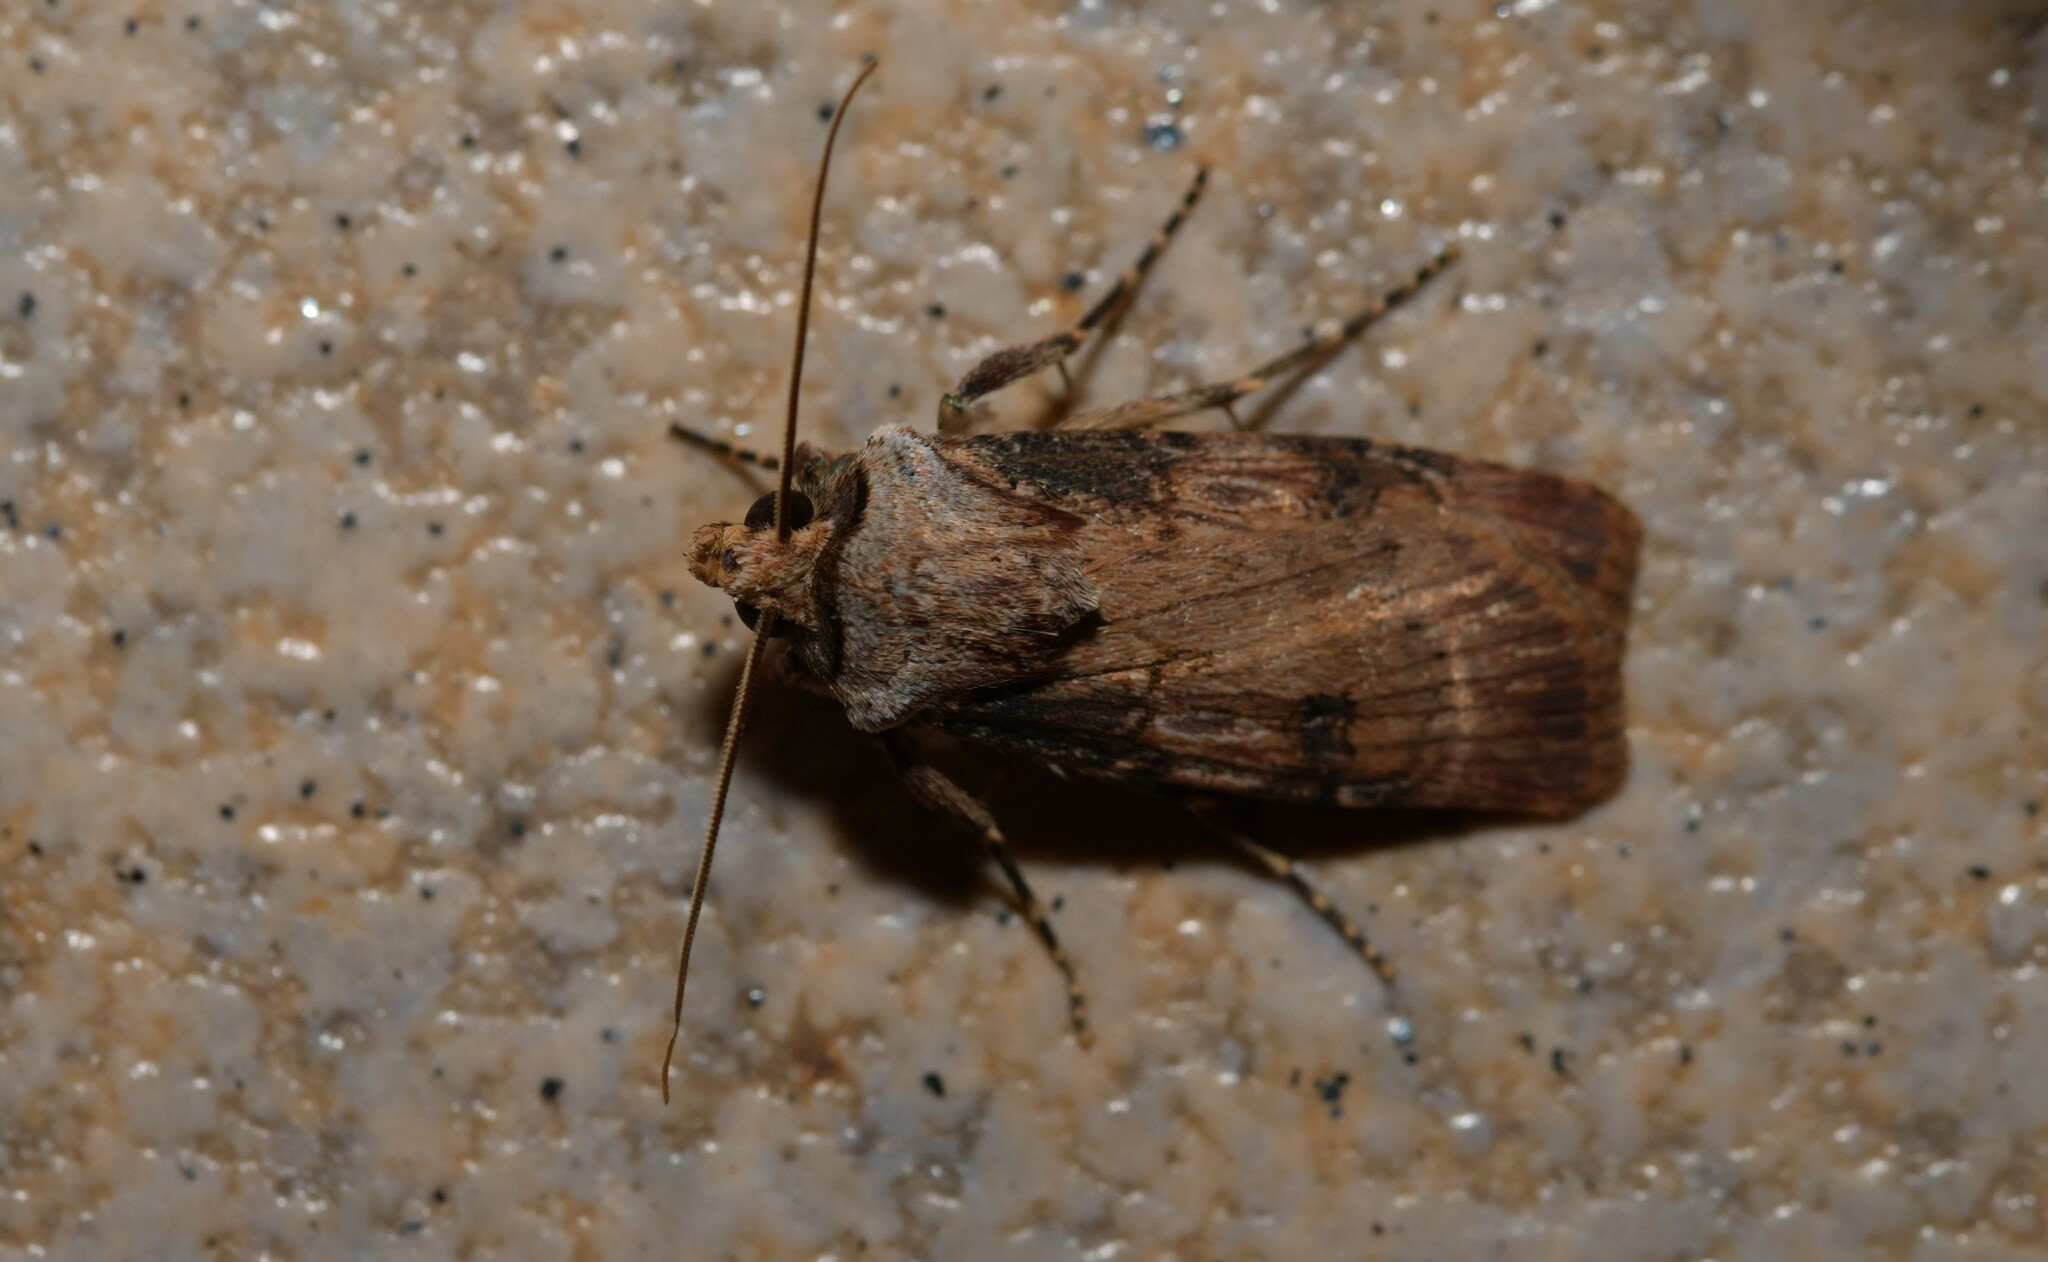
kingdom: Animalia
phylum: Arthropoda
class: Insecta
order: Lepidoptera
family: Noctuidae
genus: Agrotis
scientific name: Agrotis puta
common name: Shuttle-shaped dart
